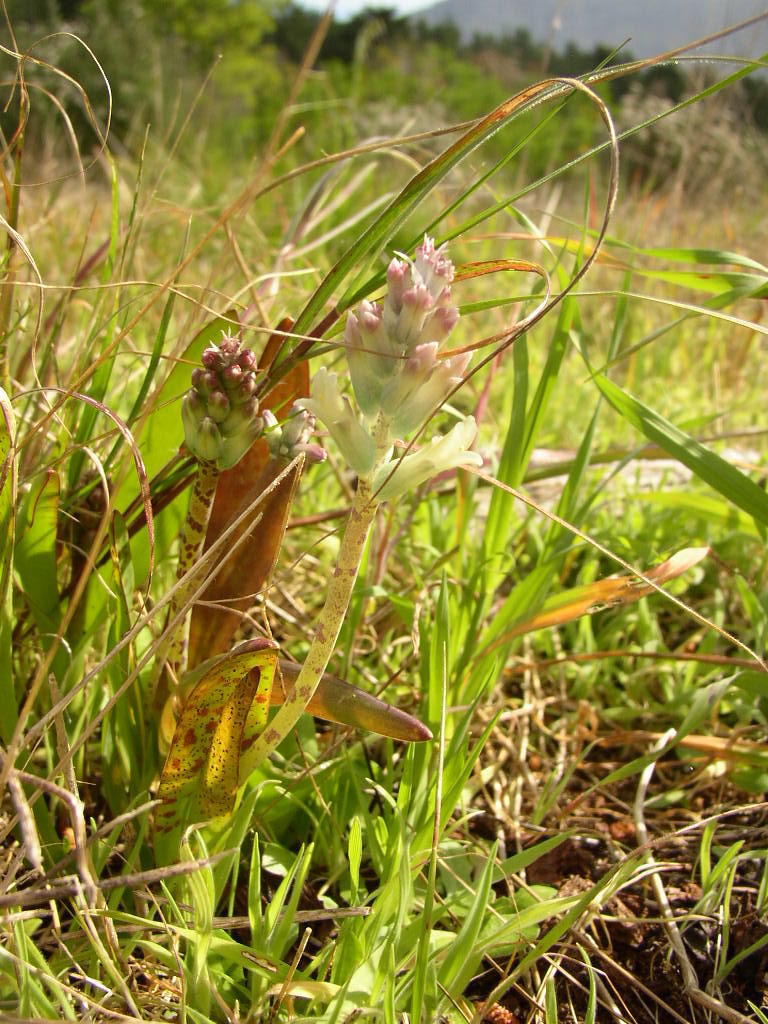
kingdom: Plantae
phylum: Tracheophyta
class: Liliopsida
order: Asparagales
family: Asparagaceae
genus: Lachenalia
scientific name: Lachenalia orchioides
